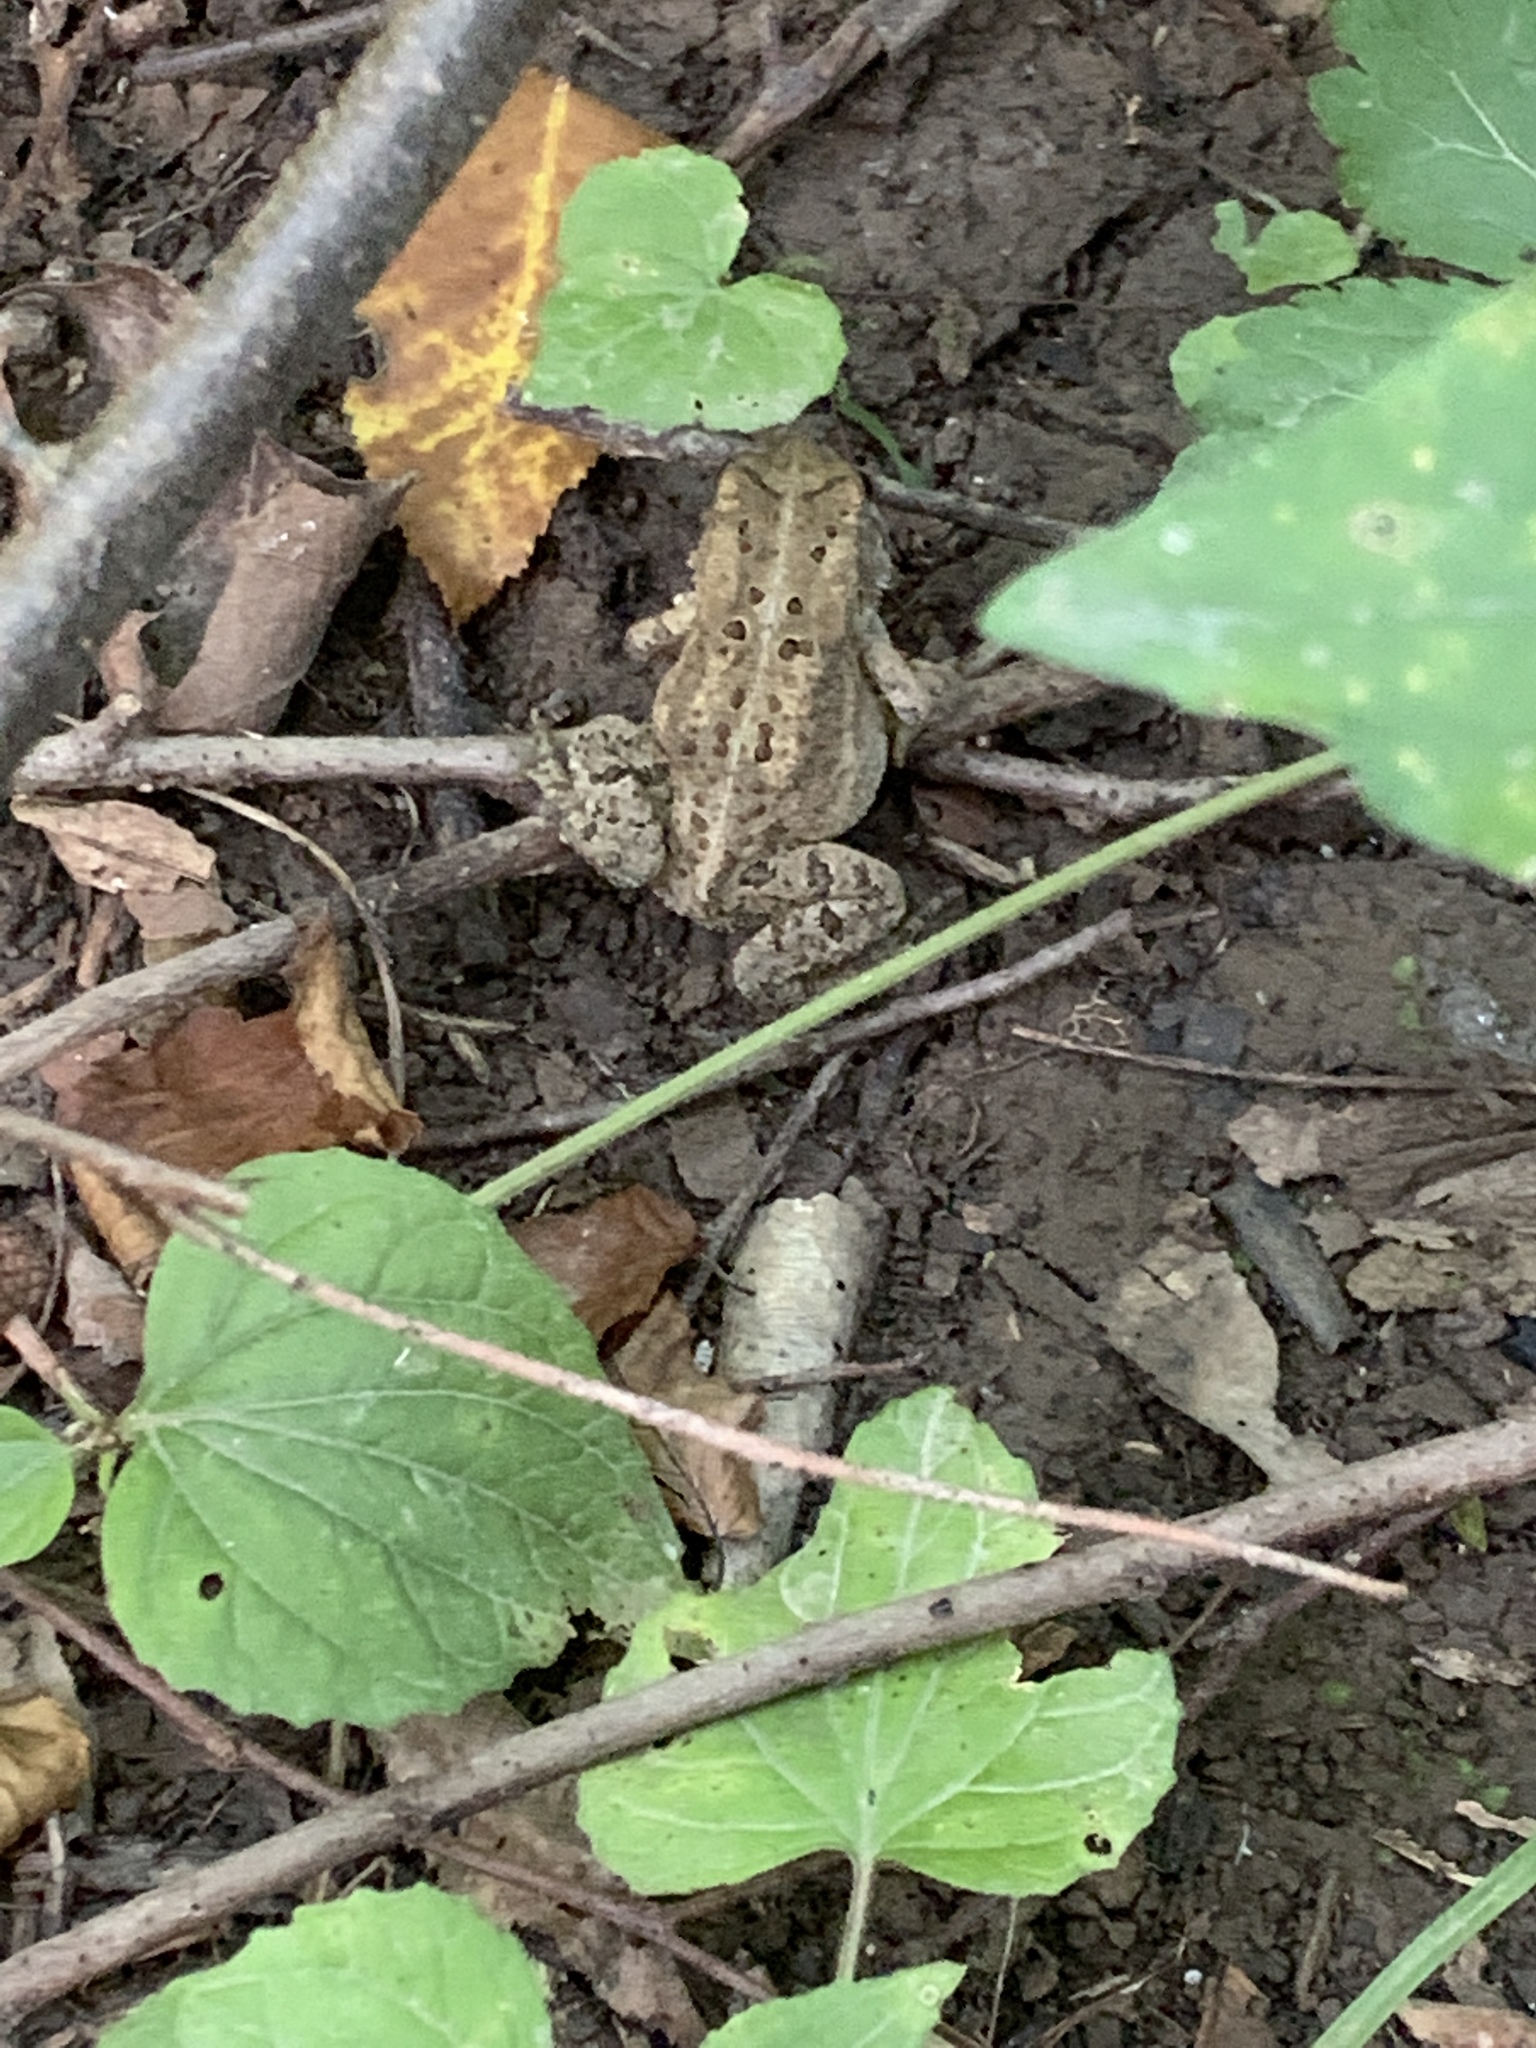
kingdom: Animalia
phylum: Chordata
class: Amphibia
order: Anura
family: Bufonidae
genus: Anaxyrus
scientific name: Anaxyrus americanus
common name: American toad
